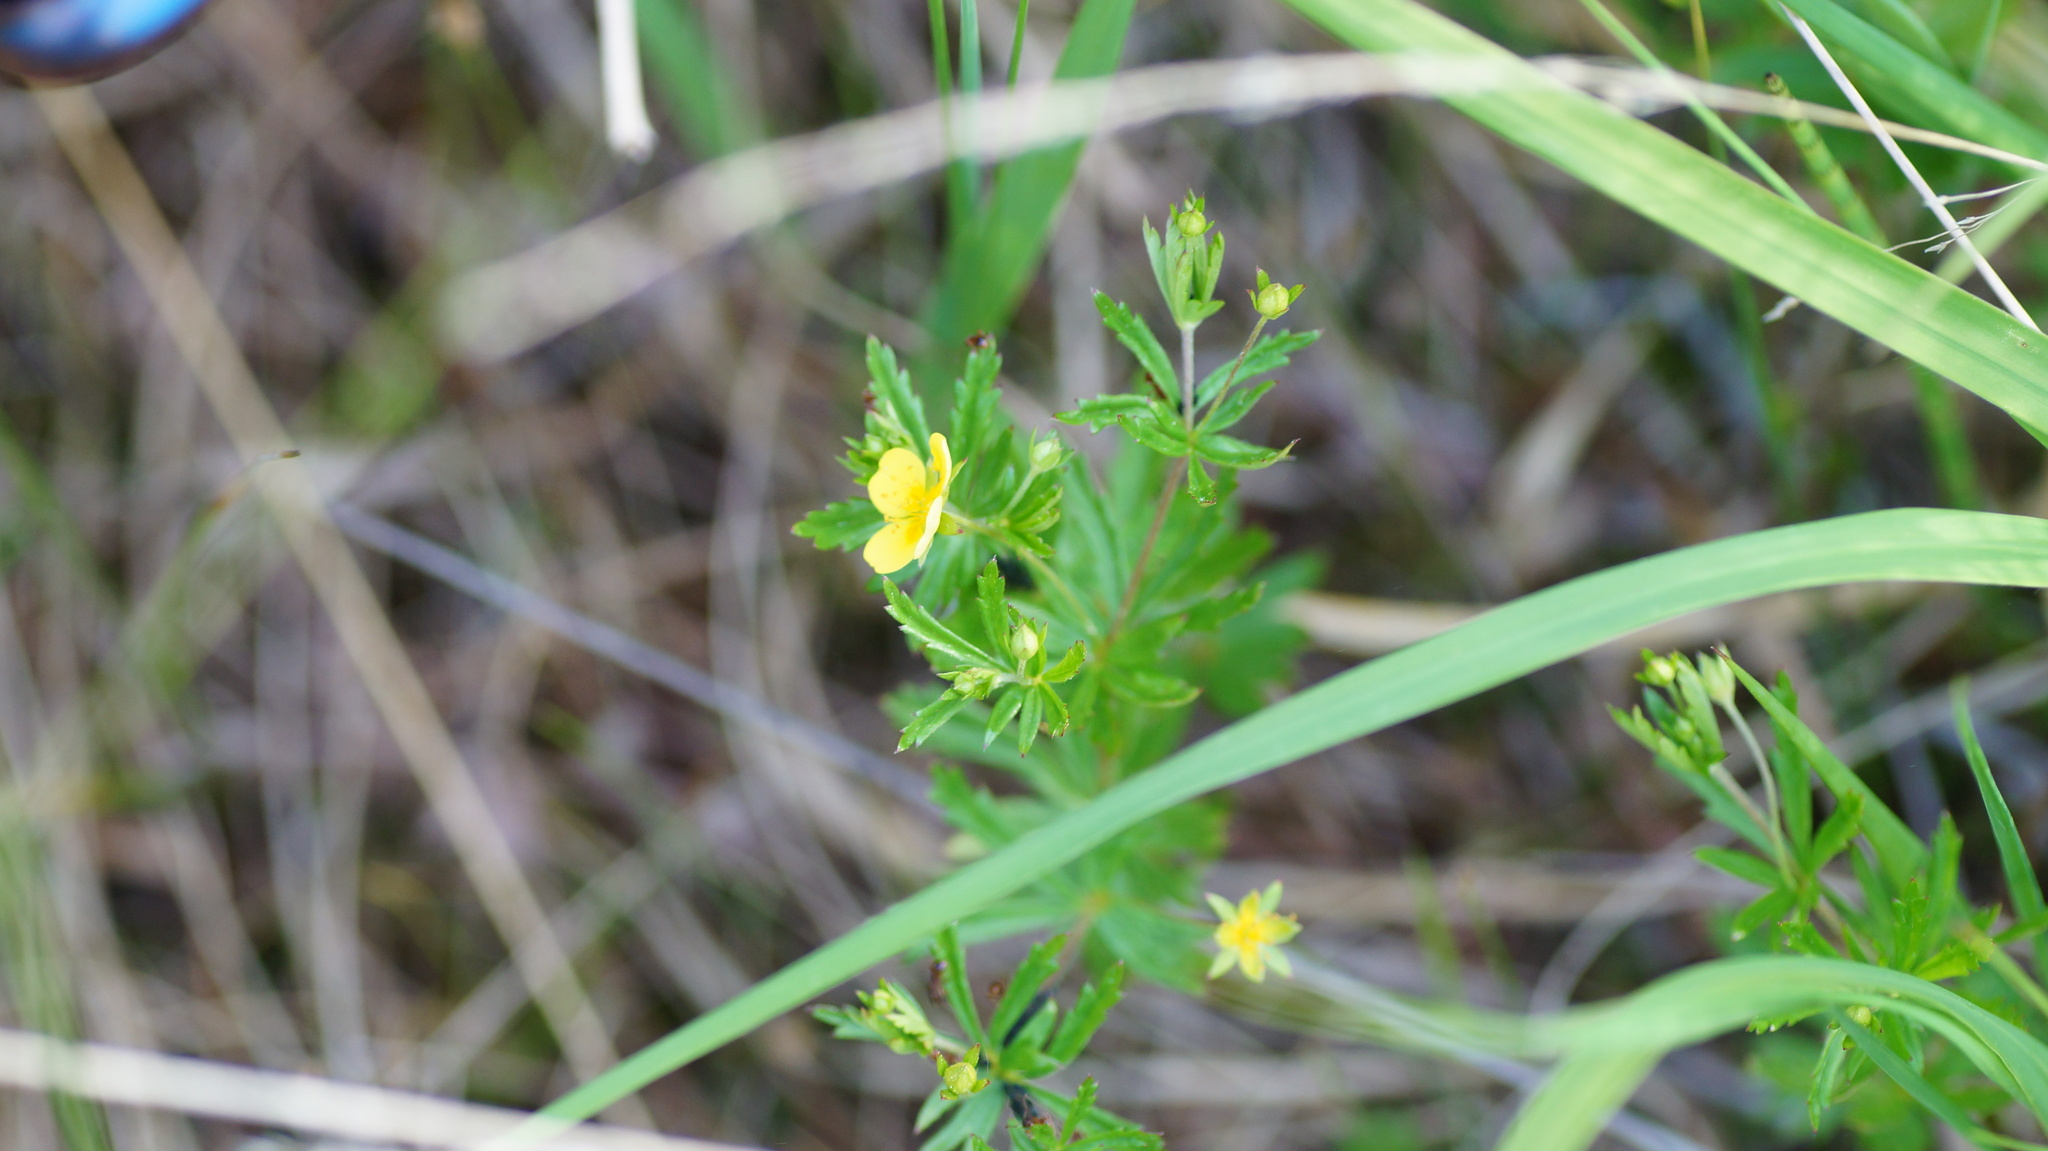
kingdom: Plantae
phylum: Tracheophyta
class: Magnoliopsida
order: Rosales
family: Rosaceae
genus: Potentilla
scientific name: Potentilla erecta
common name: Tormentil
